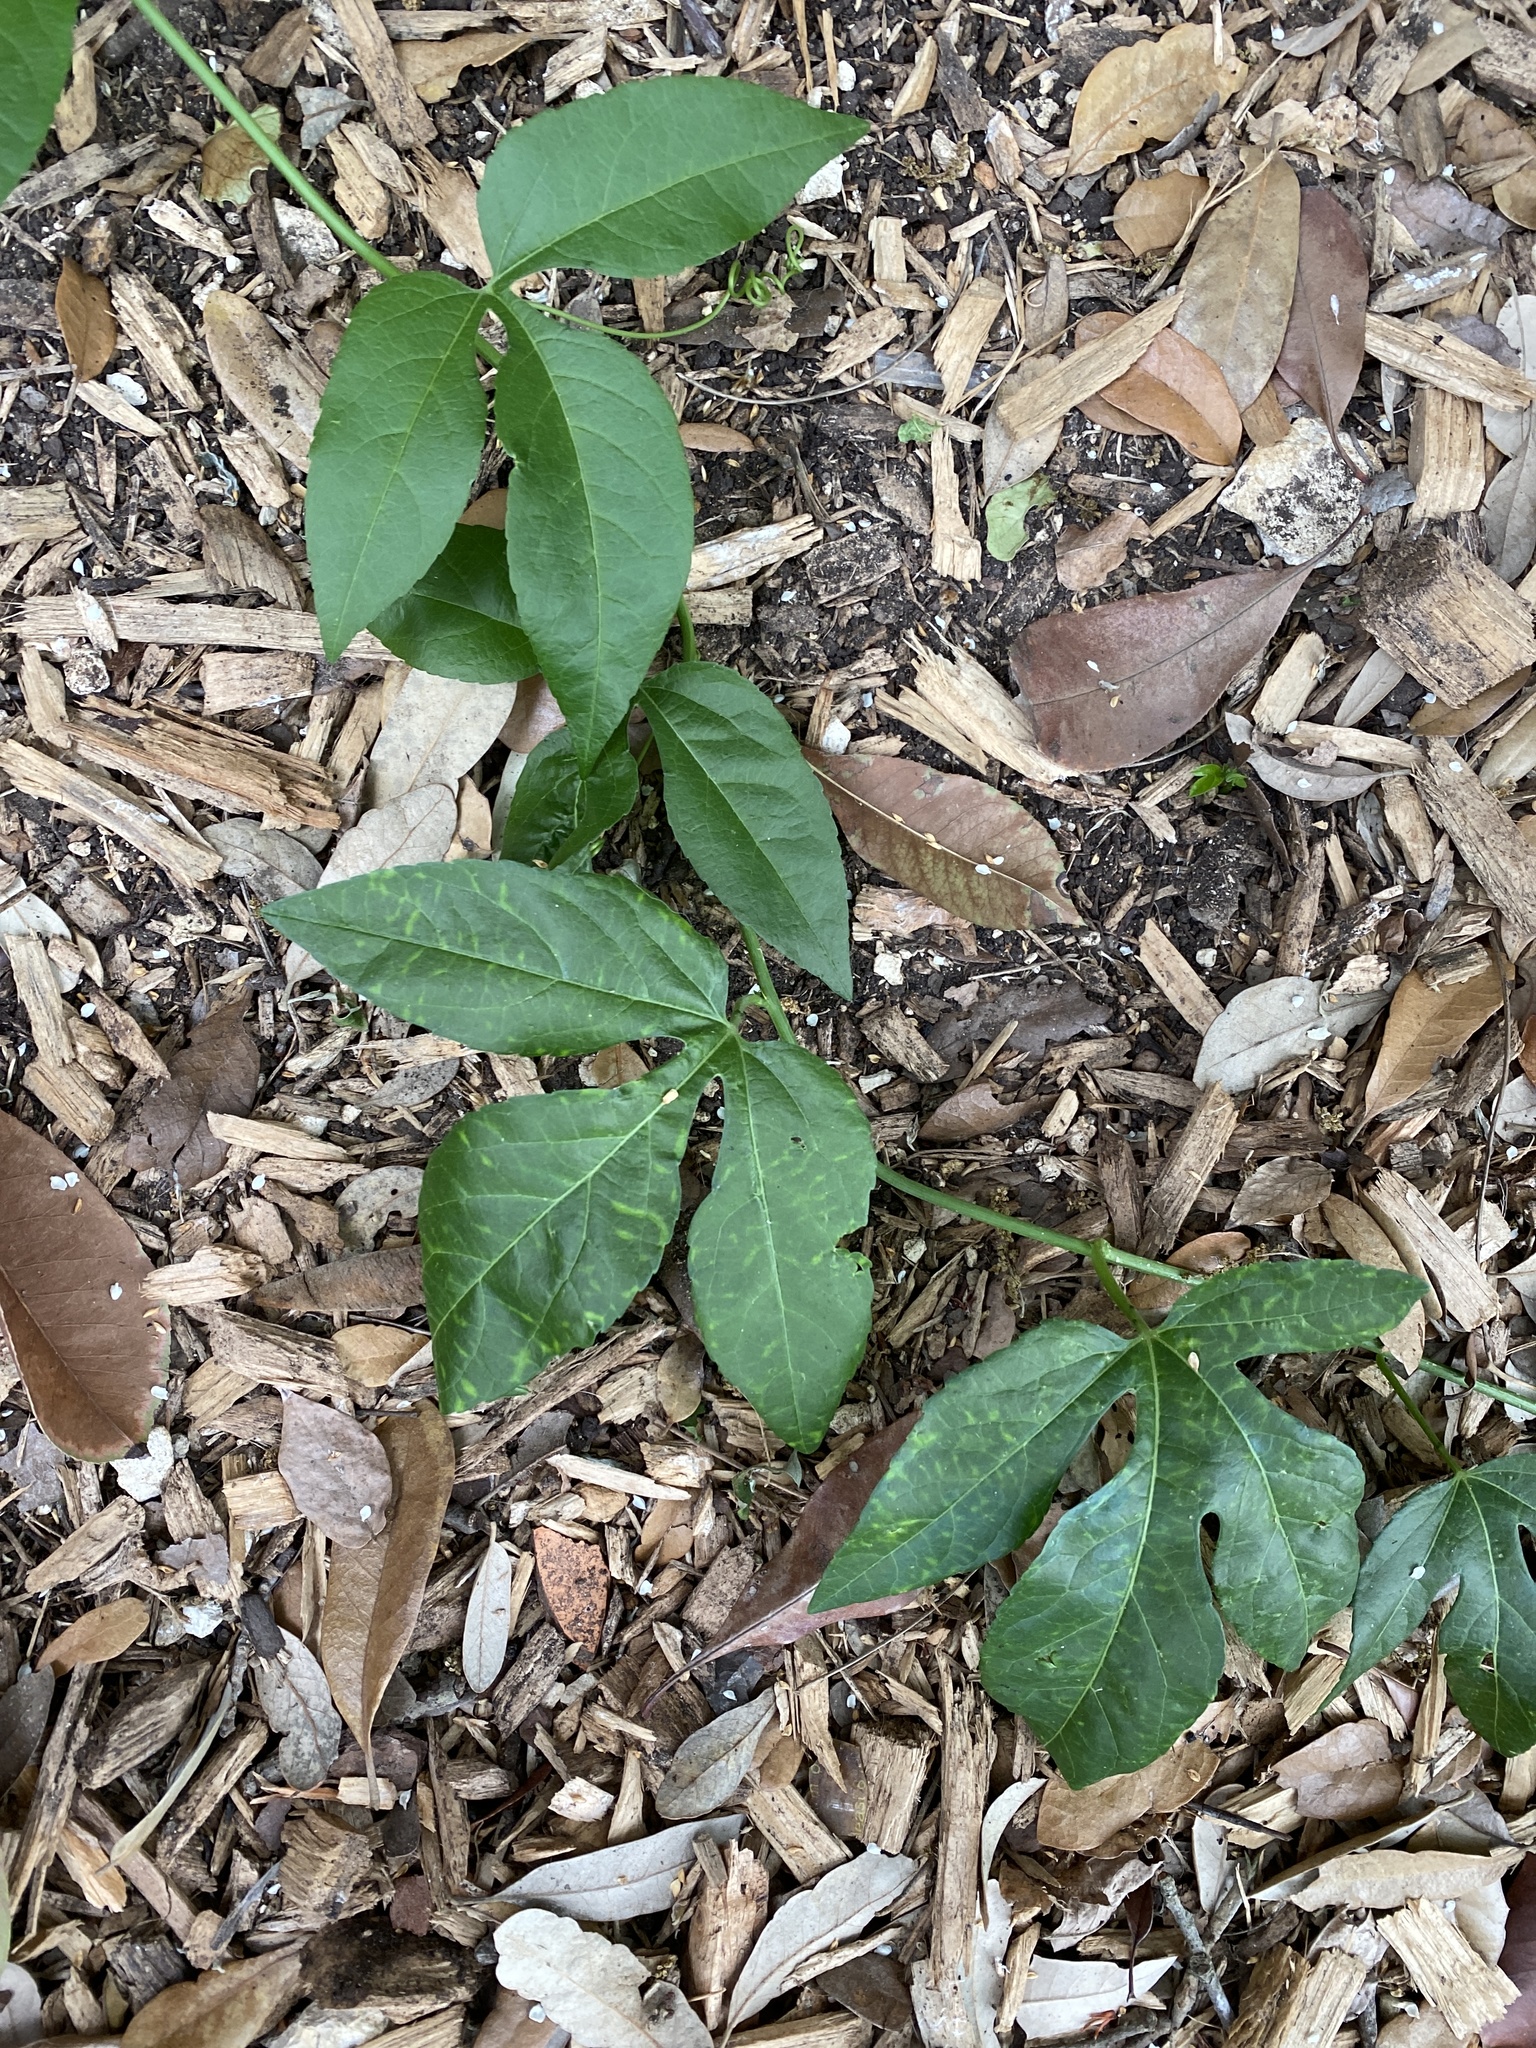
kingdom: Plantae
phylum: Tracheophyta
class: Magnoliopsida
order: Malpighiales
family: Passifloraceae
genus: Passiflora
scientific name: Passiflora
